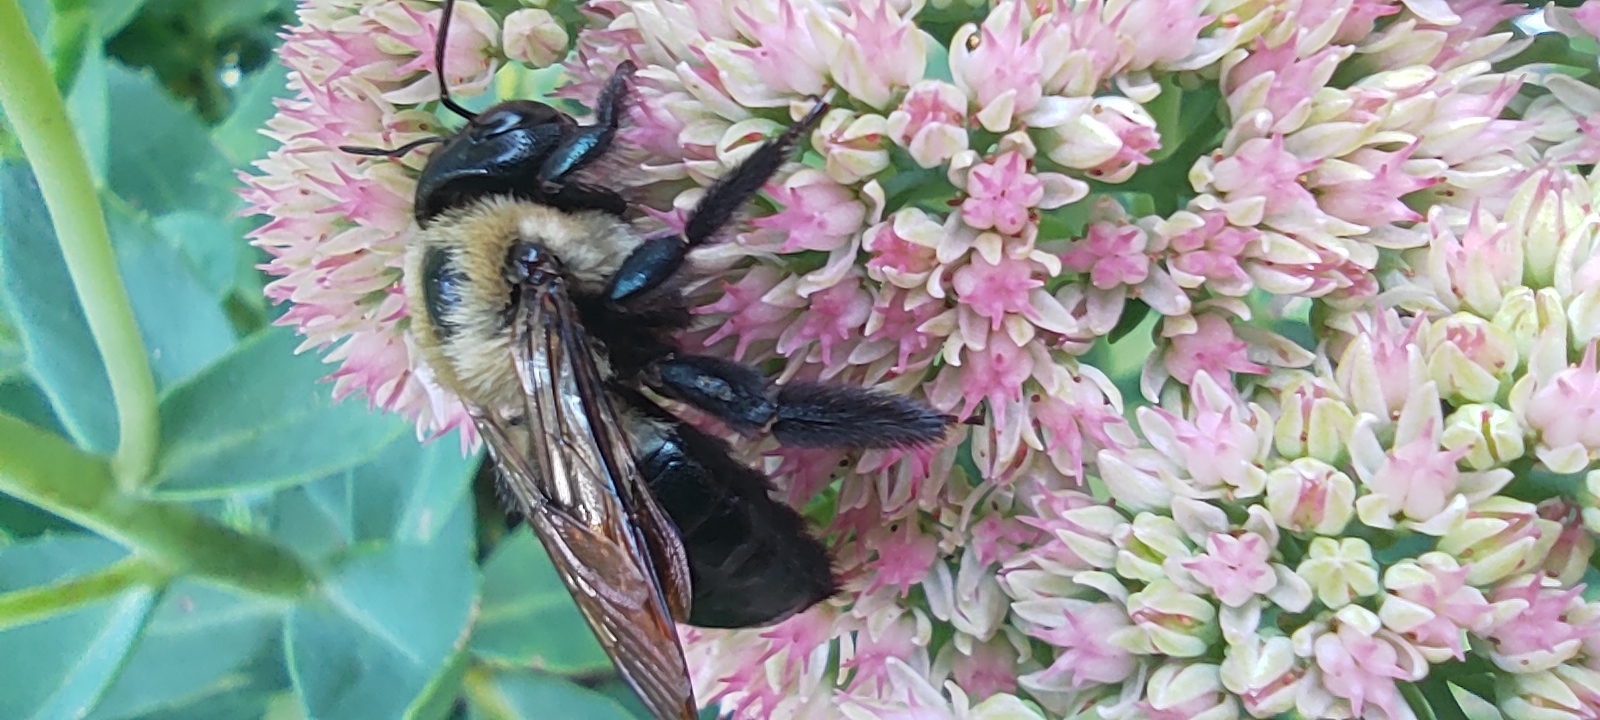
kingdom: Animalia
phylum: Arthropoda
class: Insecta
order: Hymenoptera
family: Apidae
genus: Xylocopa
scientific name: Xylocopa virginica
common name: Carpenter bee
